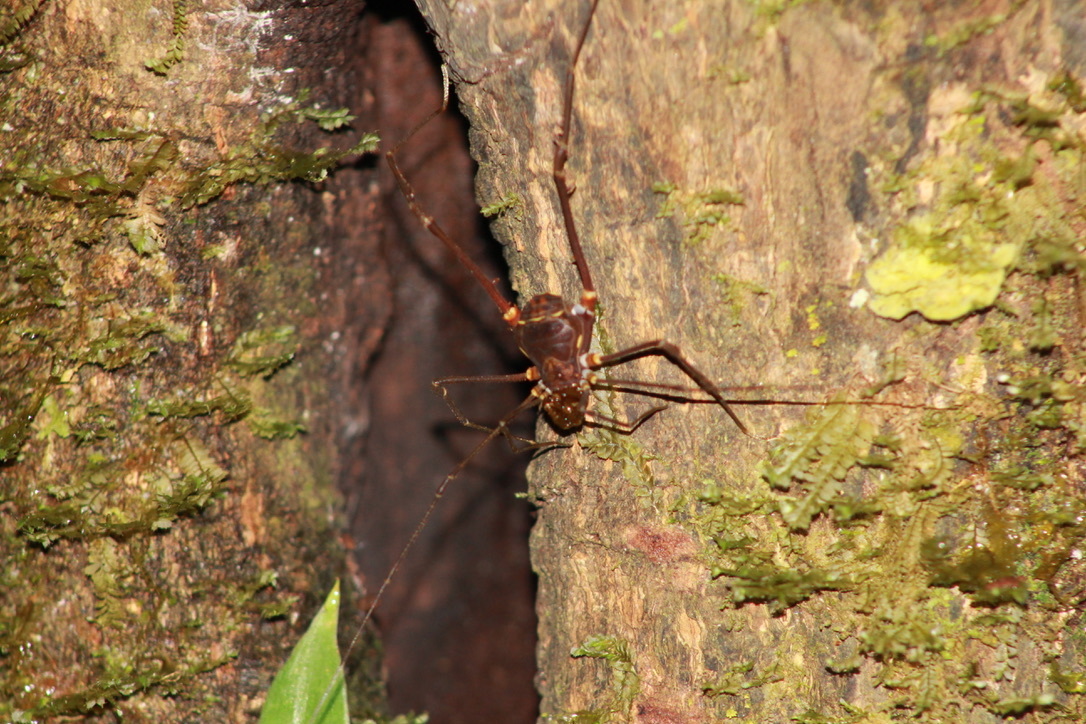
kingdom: Animalia
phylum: Arthropoda
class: Arachnida
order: Opiliones
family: Cranaidae
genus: Phareicranaus
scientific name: Phareicranaus calcariferus
